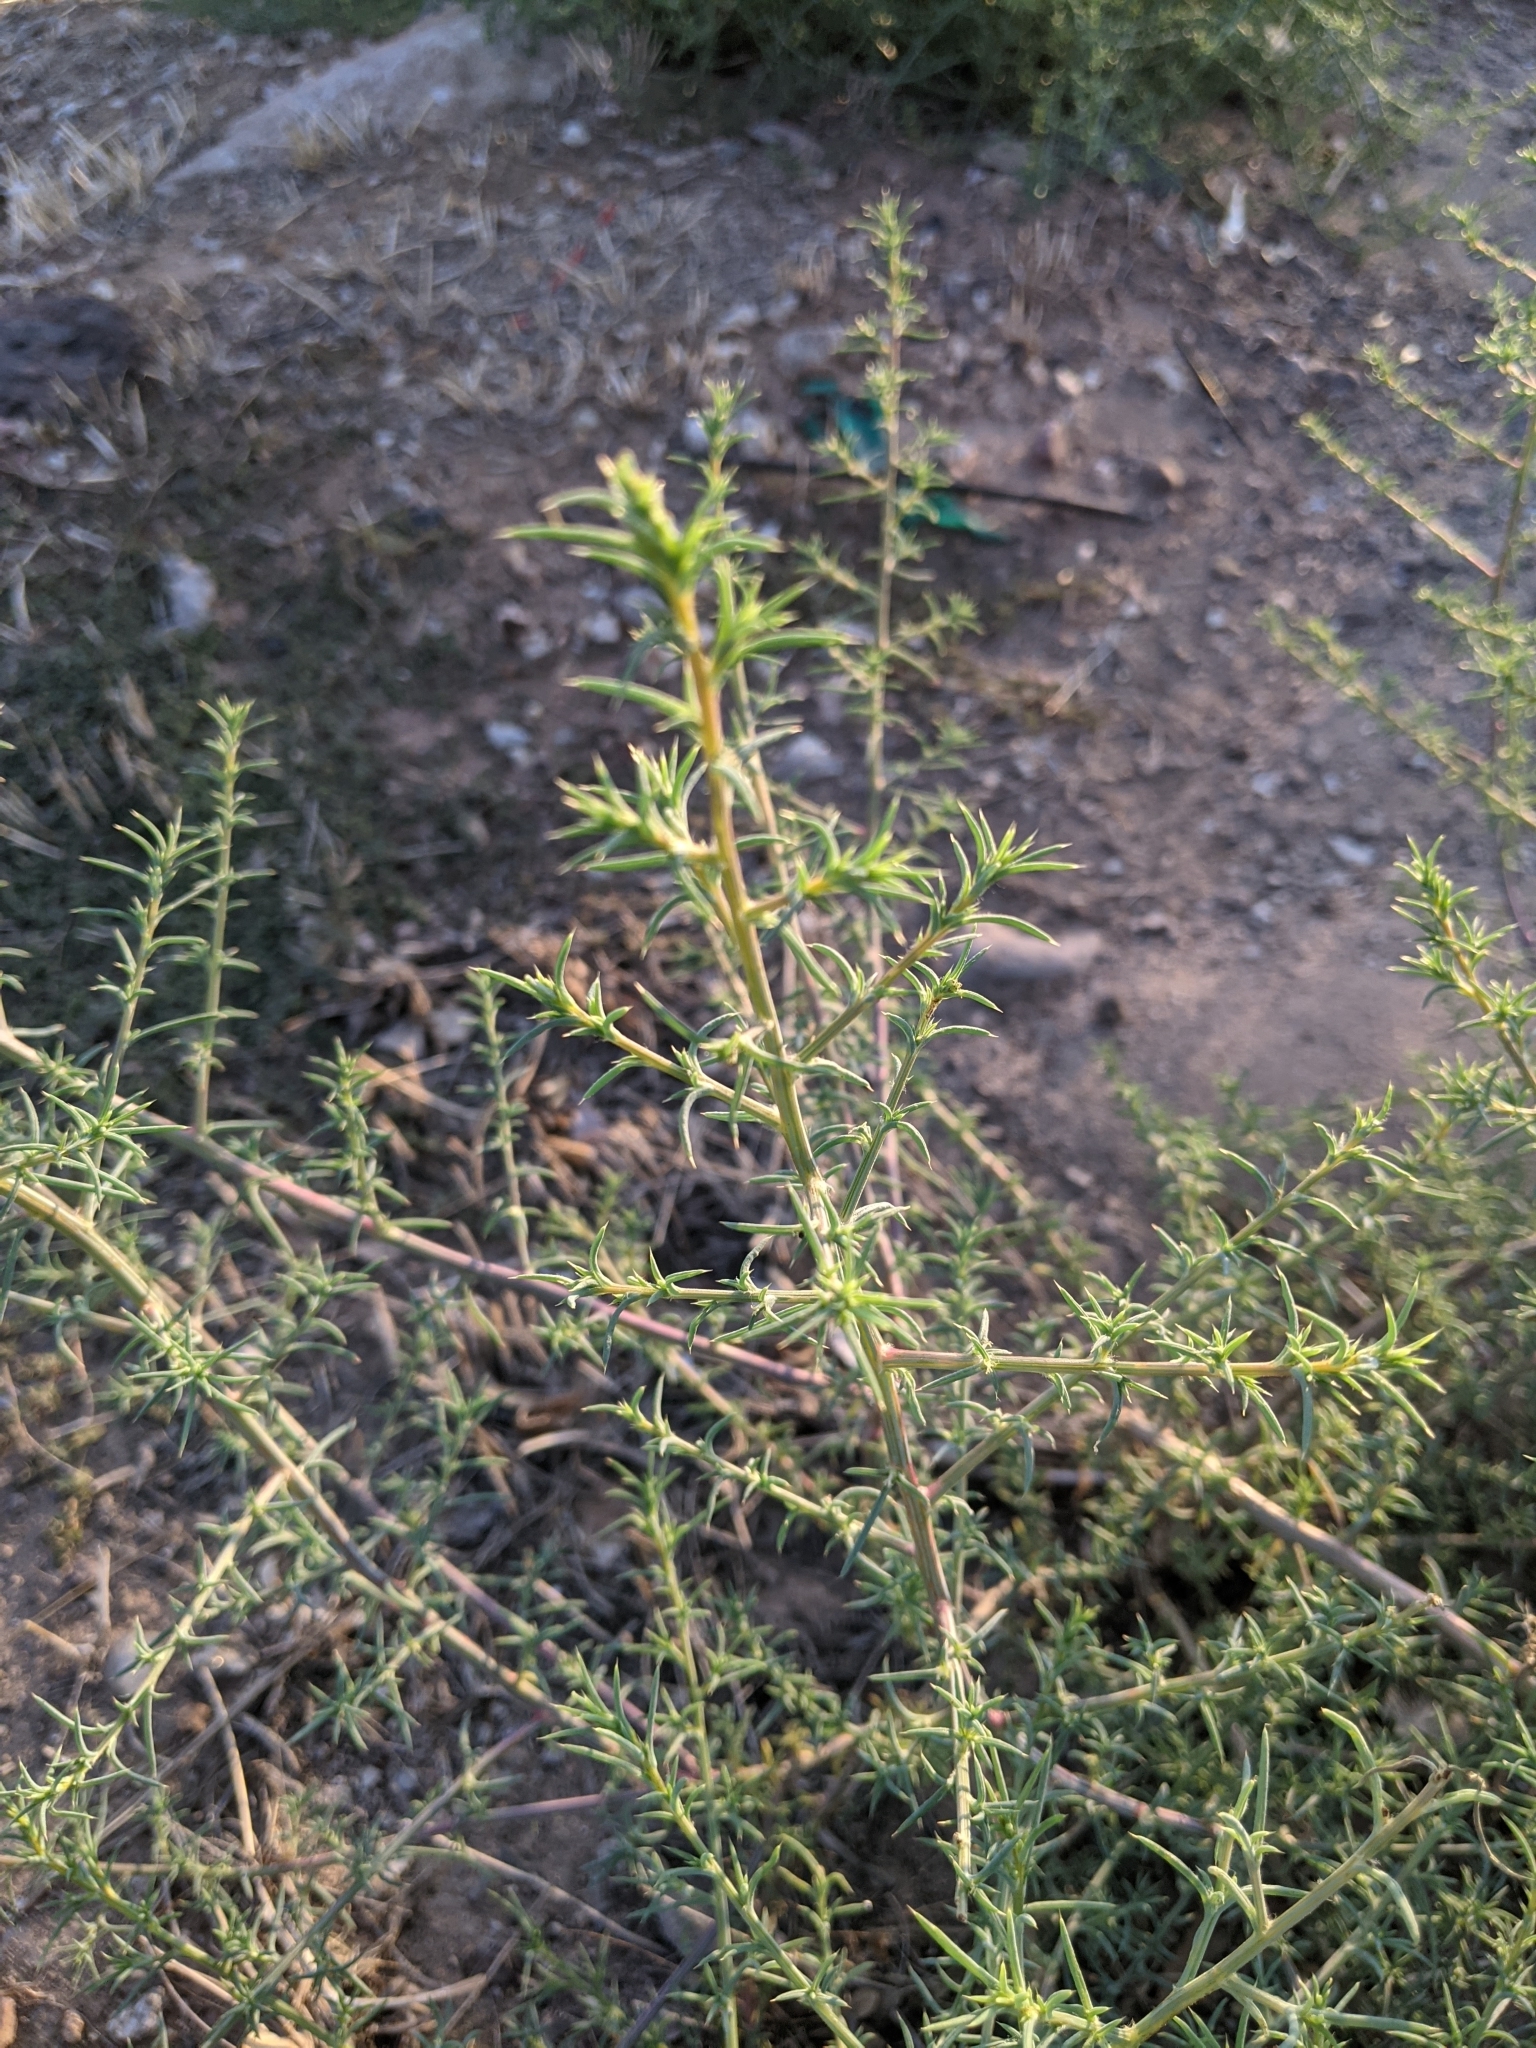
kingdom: Plantae
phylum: Tracheophyta
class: Magnoliopsida
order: Caryophyllales
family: Amaranthaceae
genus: Salsola
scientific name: Salsola tragus
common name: Prickly russian thistle
